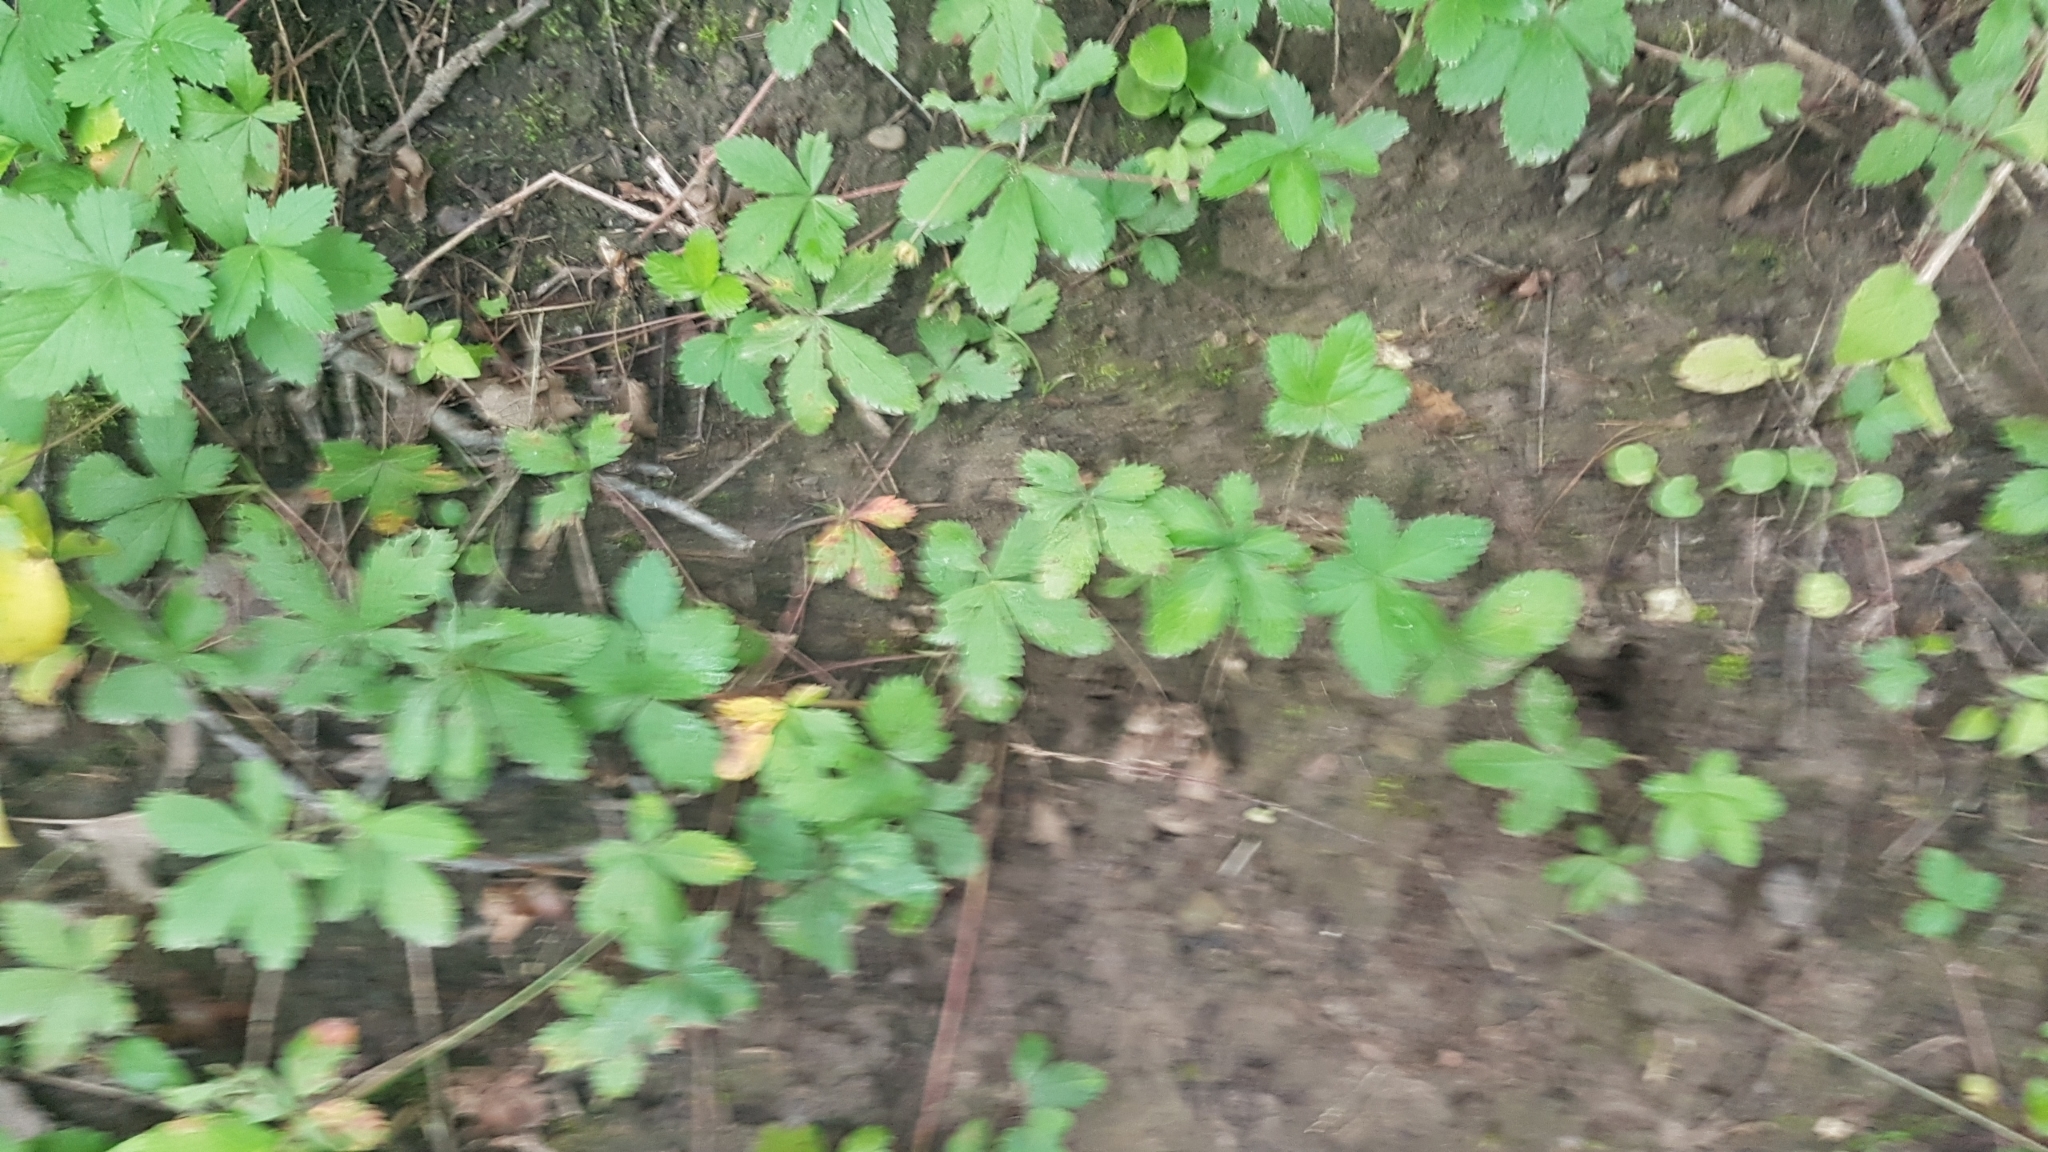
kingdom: Plantae
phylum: Tracheophyta
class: Magnoliopsida
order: Rosales
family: Rosaceae
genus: Potentilla
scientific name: Potentilla simplex
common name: Old field cinquefoil
